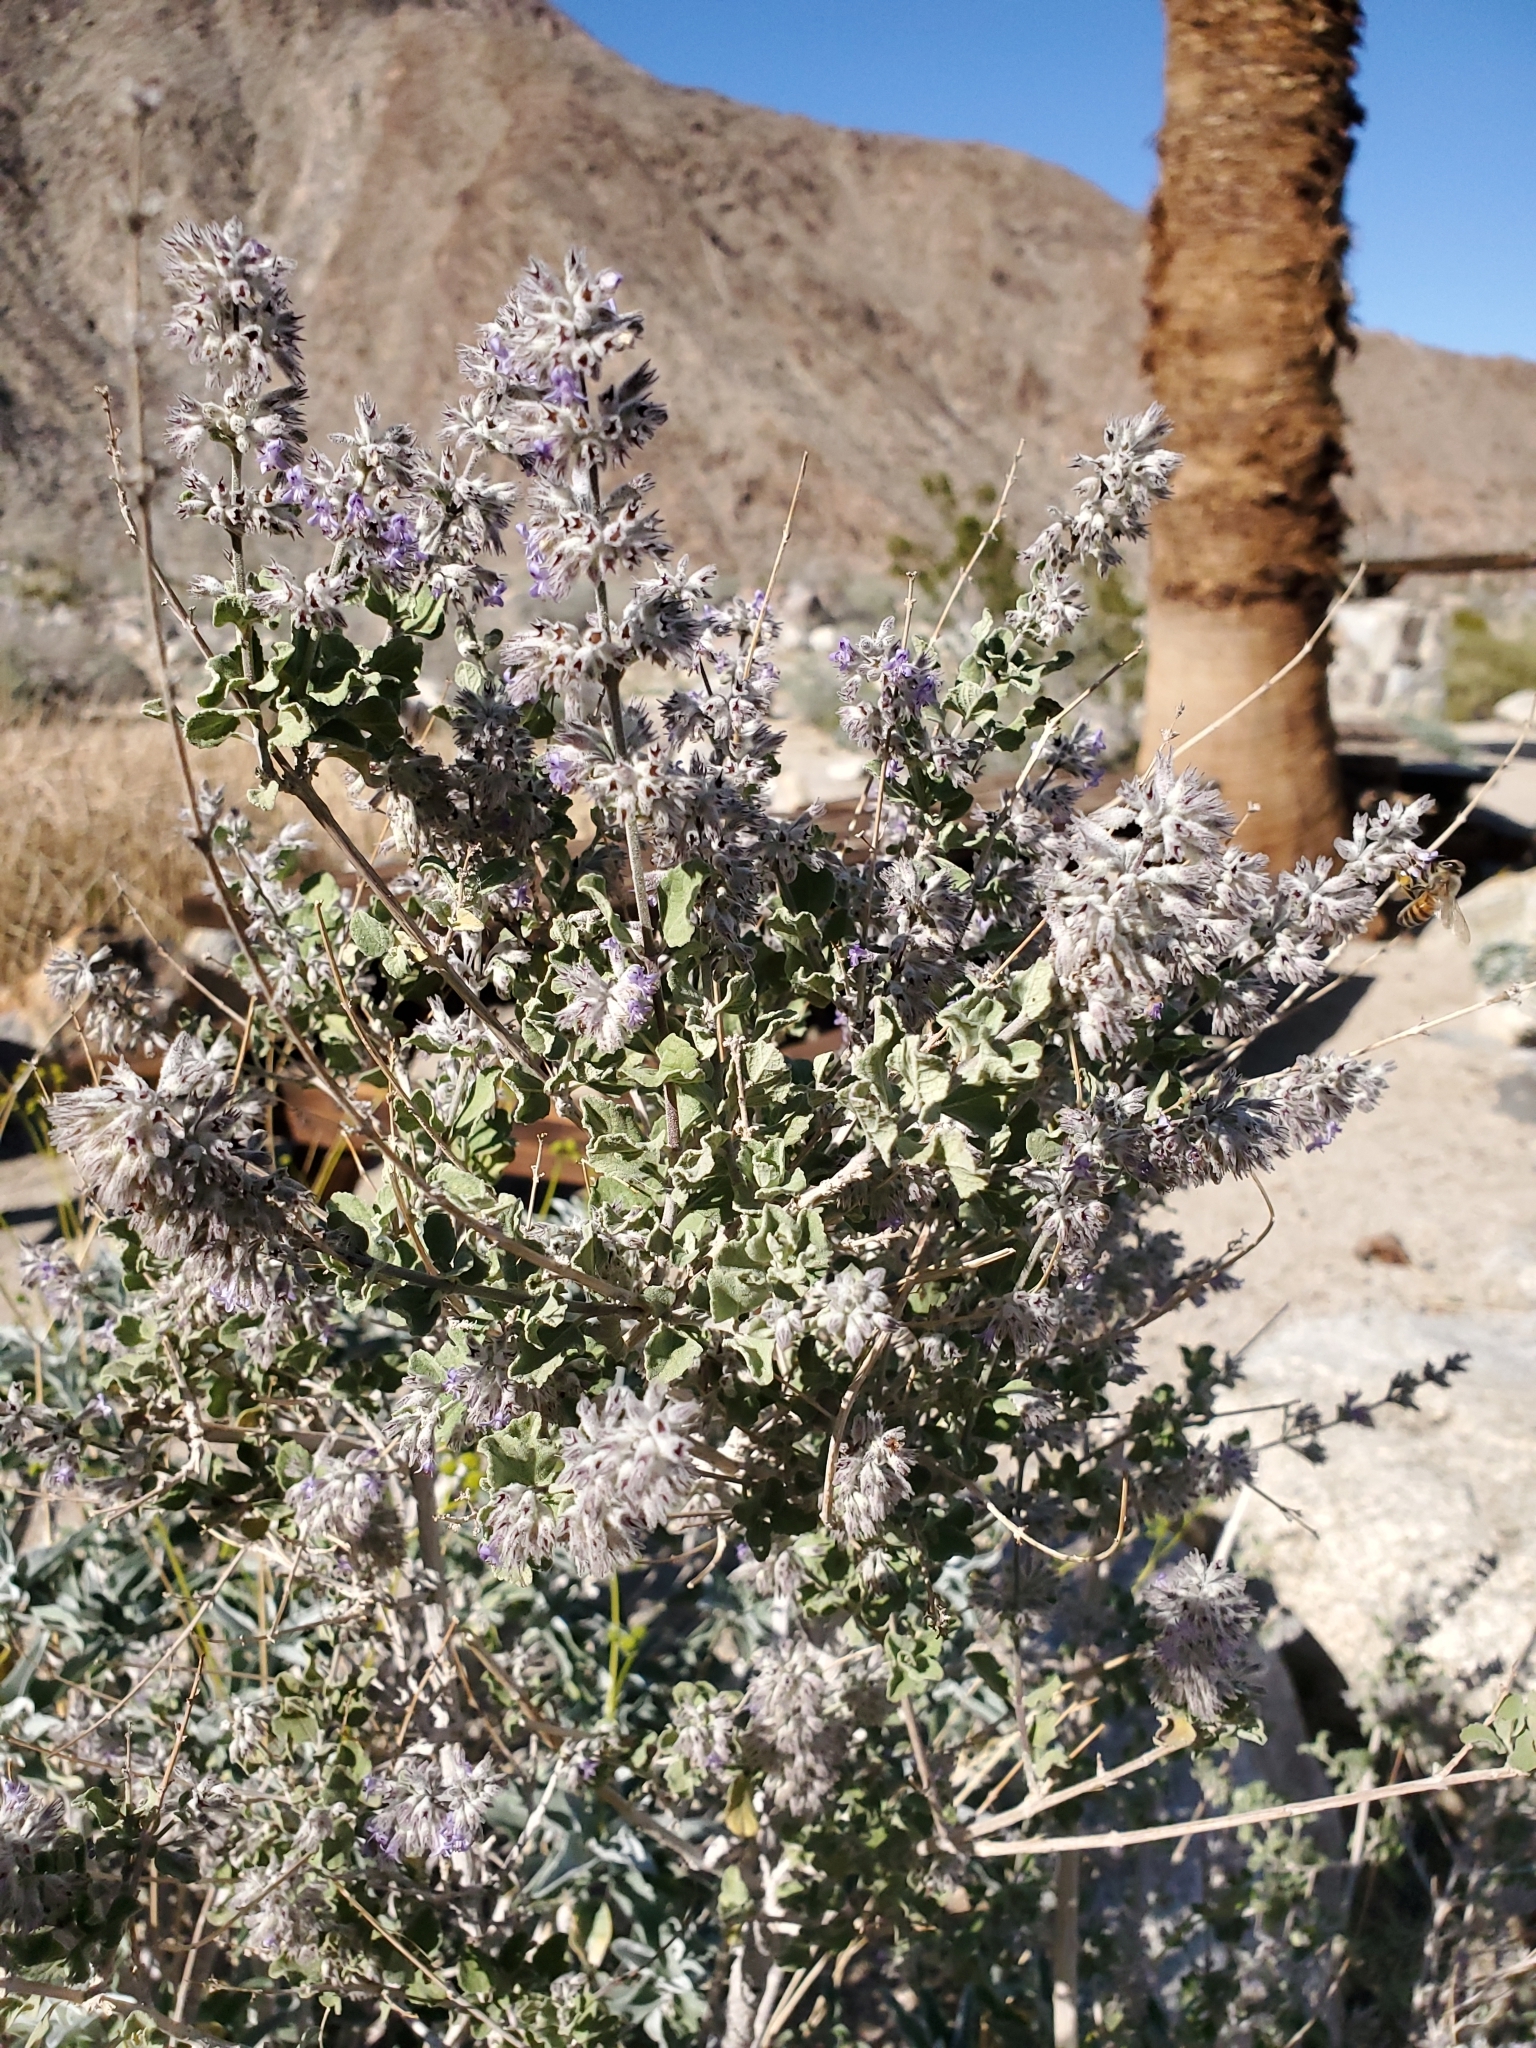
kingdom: Plantae
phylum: Tracheophyta
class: Magnoliopsida
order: Lamiales
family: Lamiaceae
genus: Condea
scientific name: Condea emoryi
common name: Chia
